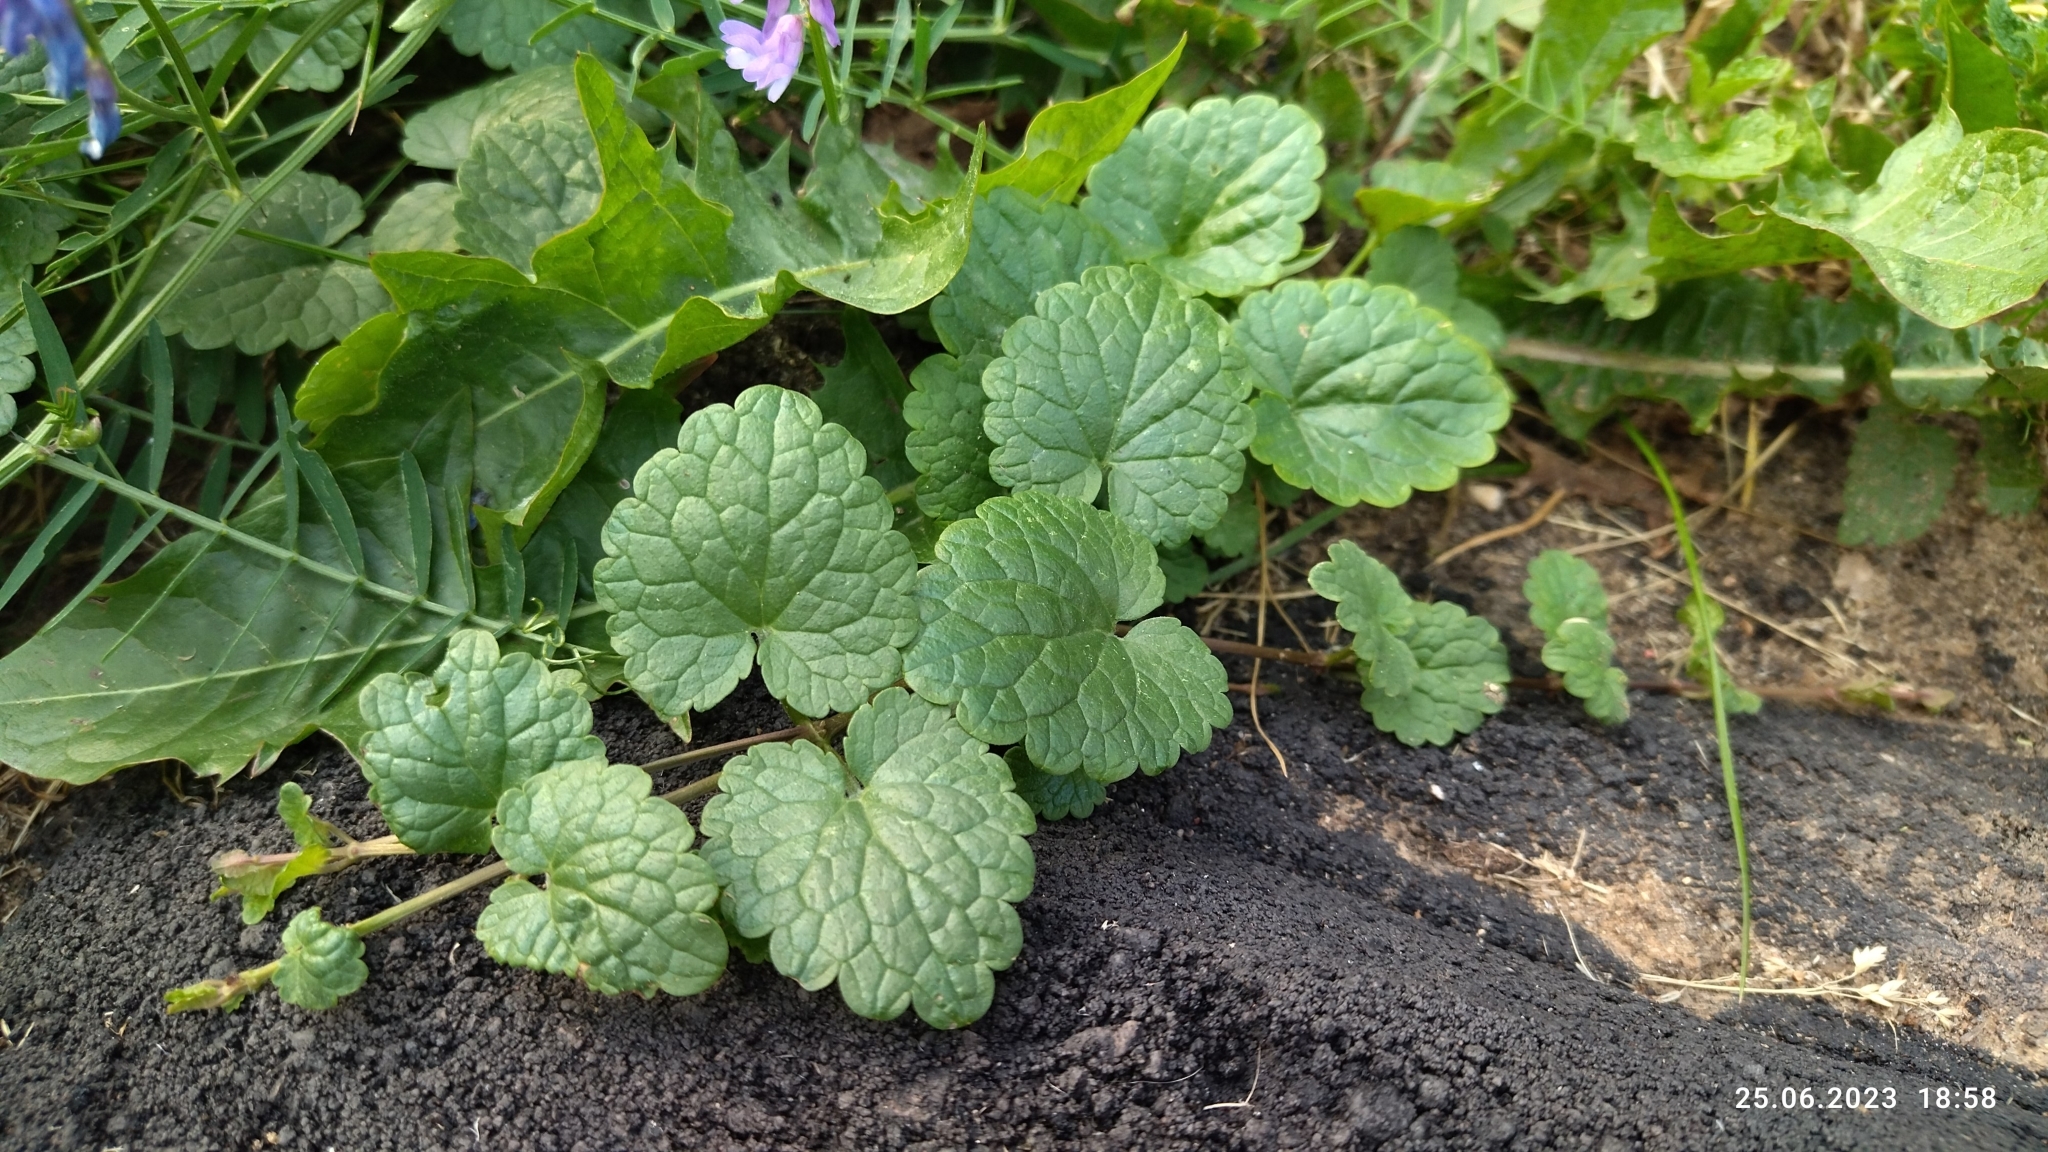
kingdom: Plantae
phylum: Tracheophyta
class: Magnoliopsida
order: Lamiales
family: Lamiaceae
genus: Glechoma
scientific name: Glechoma hederacea
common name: Ground ivy
